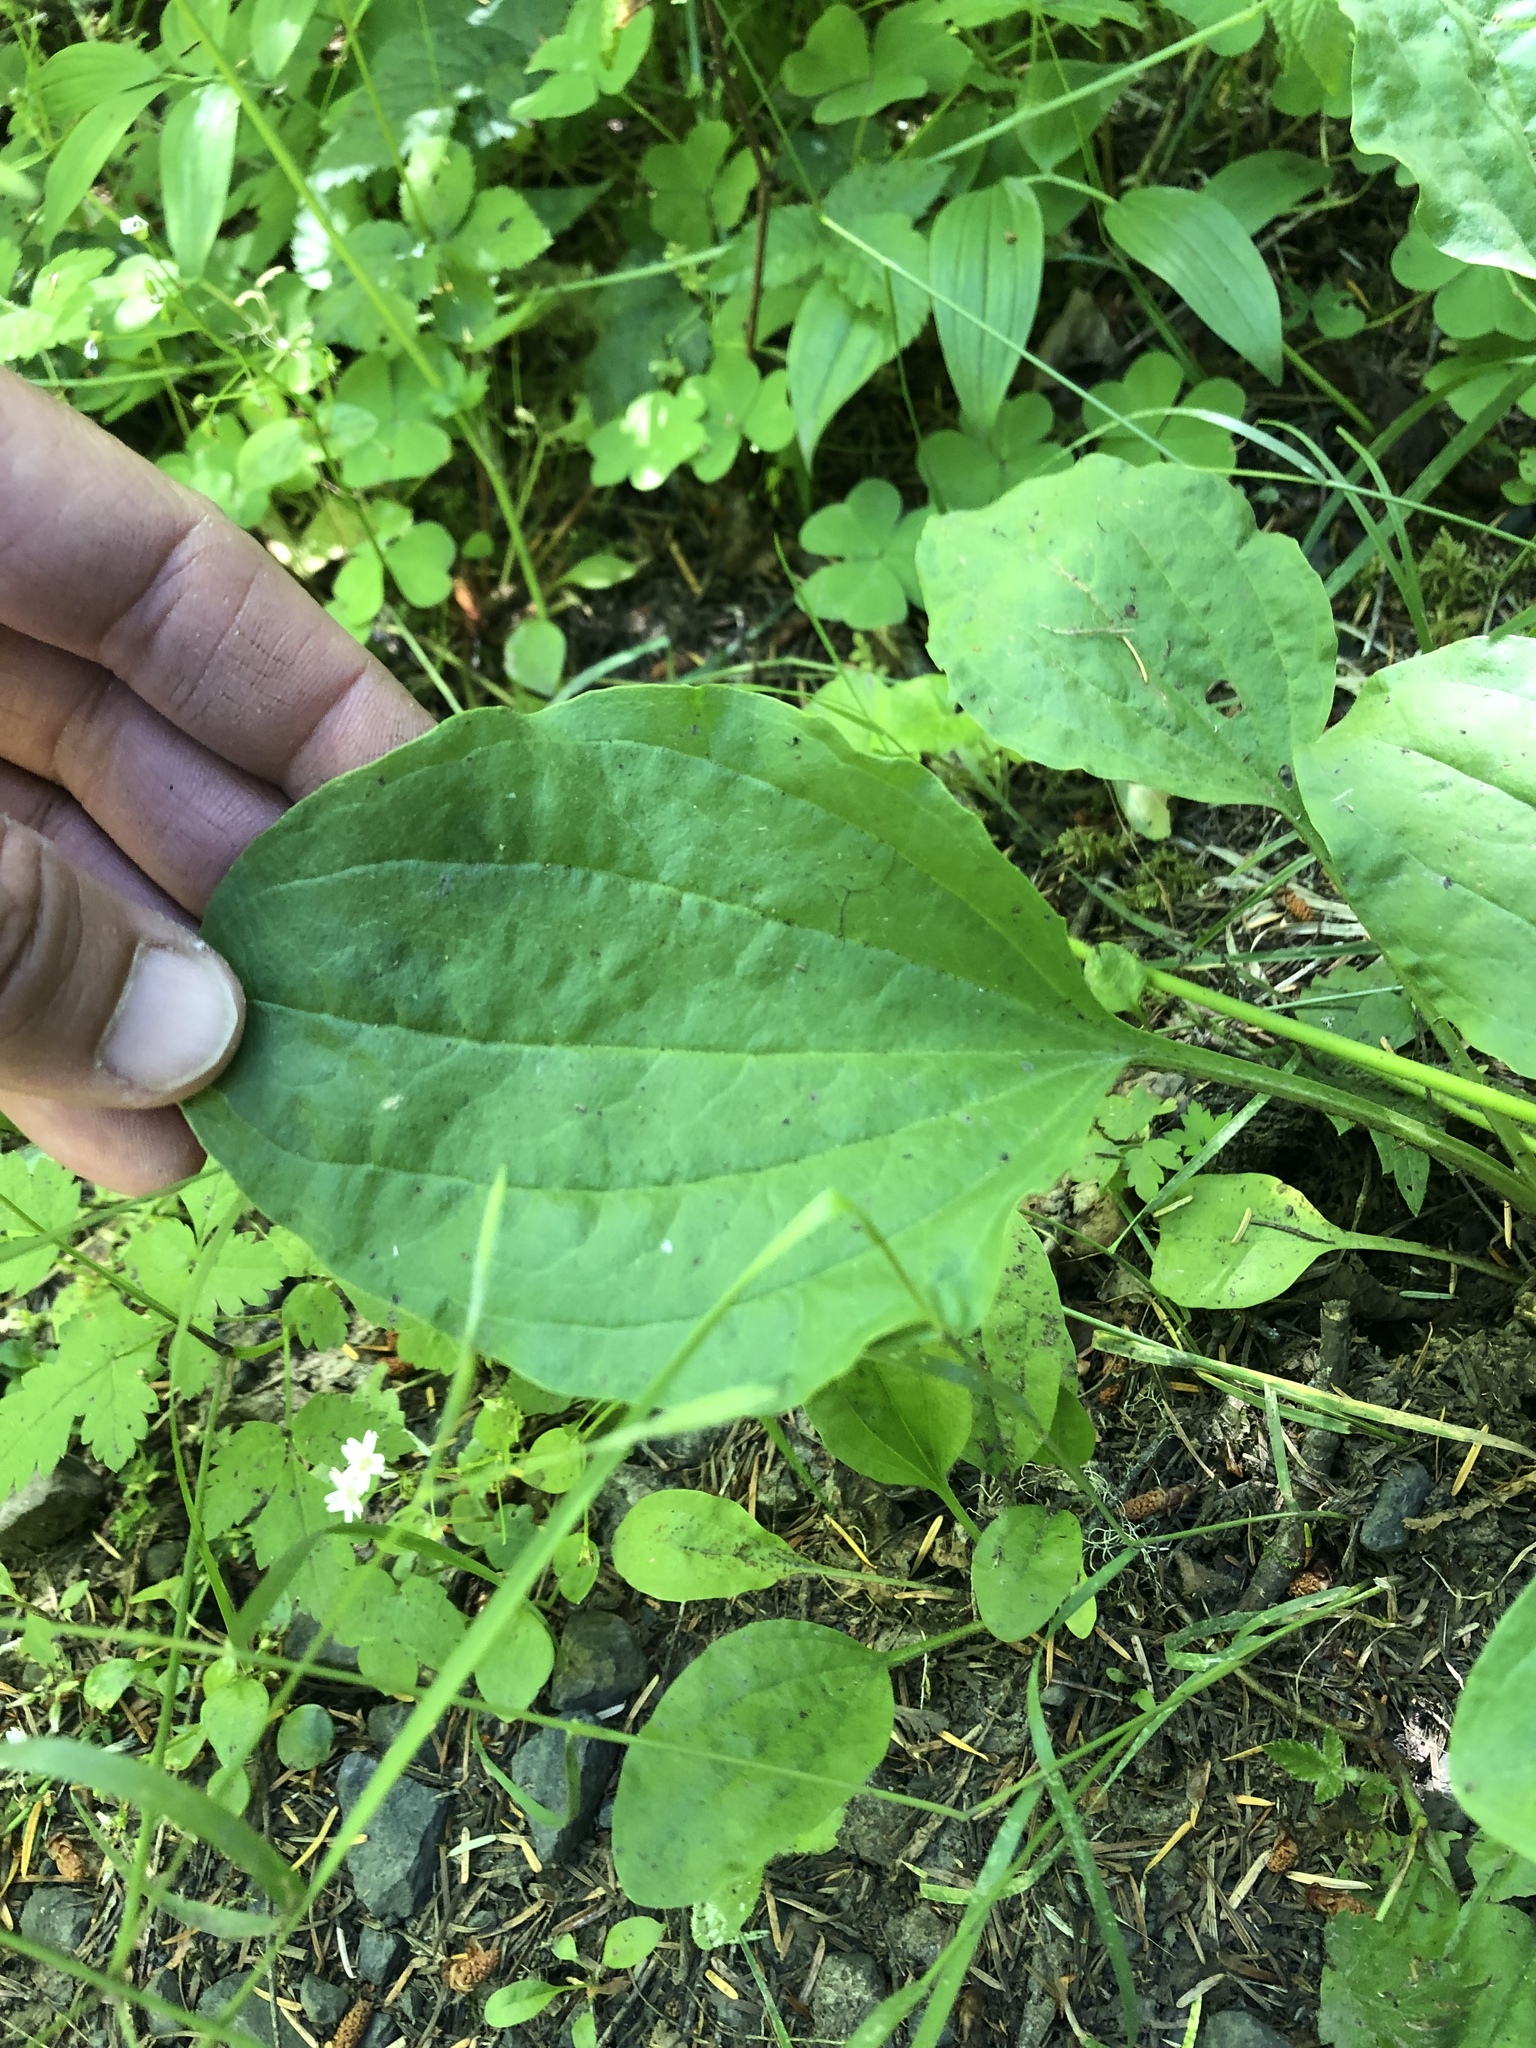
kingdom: Plantae
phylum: Tracheophyta
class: Magnoliopsida
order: Lamiales
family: Plantaginaceae
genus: Plantago
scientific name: Plantago major
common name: Common plantain
